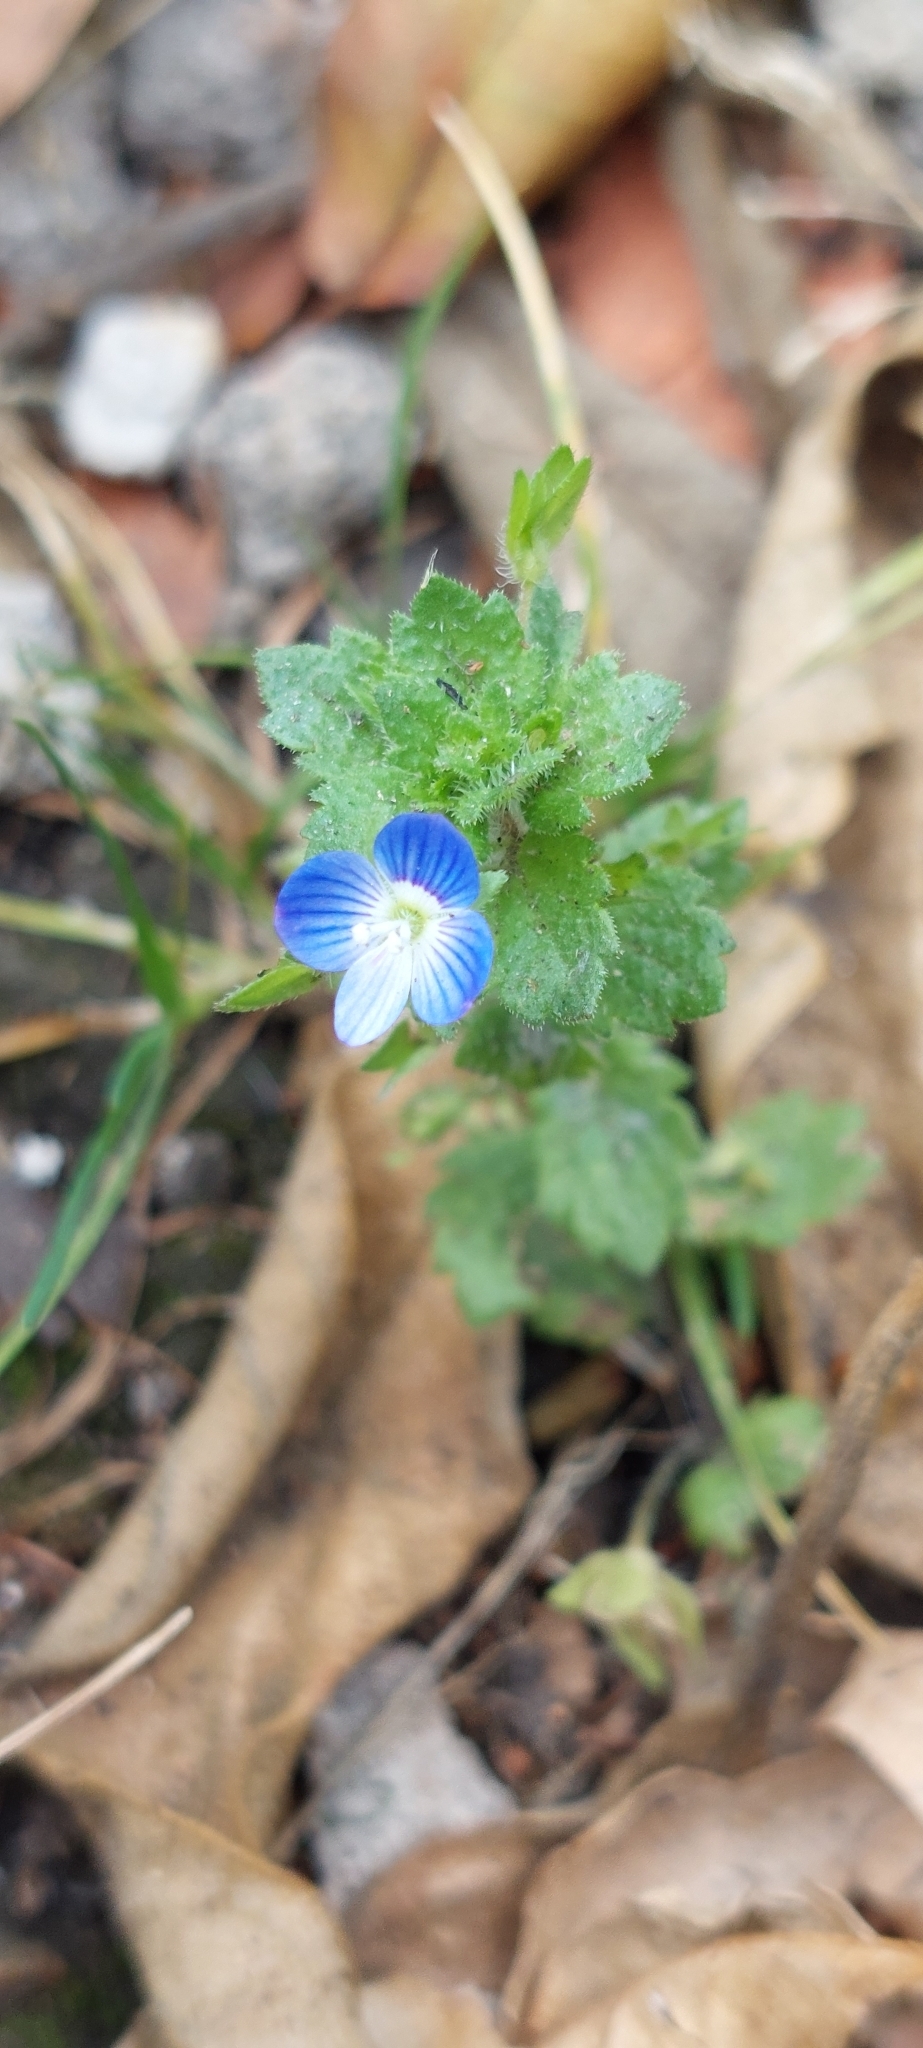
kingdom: Plantae
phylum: Tracheophyta
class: Magnoliopsida
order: Lamiales
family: Plantaginaceae
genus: Veronica
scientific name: Veronica persica
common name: Common field-speedwell
